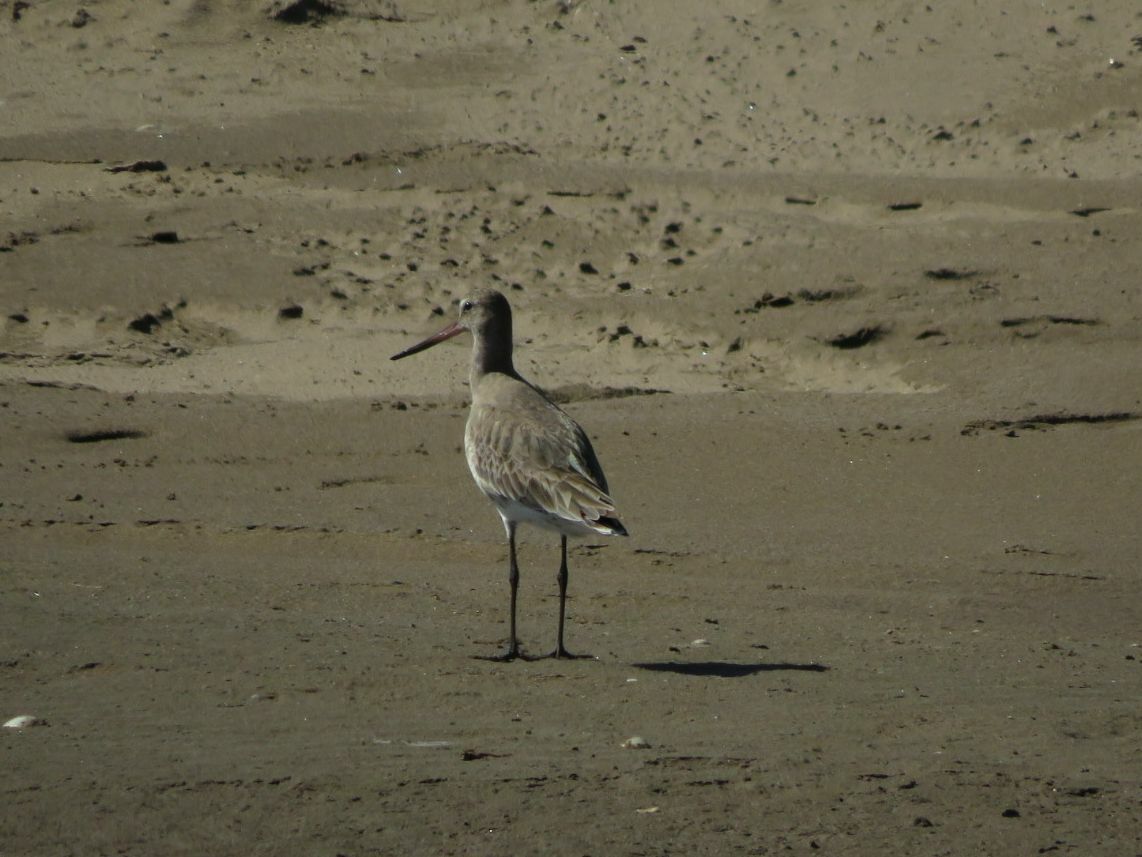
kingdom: Animalia
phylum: Chordata
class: Aves
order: Charadriiformes
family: Scolopacidae
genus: Limosa
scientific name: Limosa haemastica
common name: Hudsonian godwit
